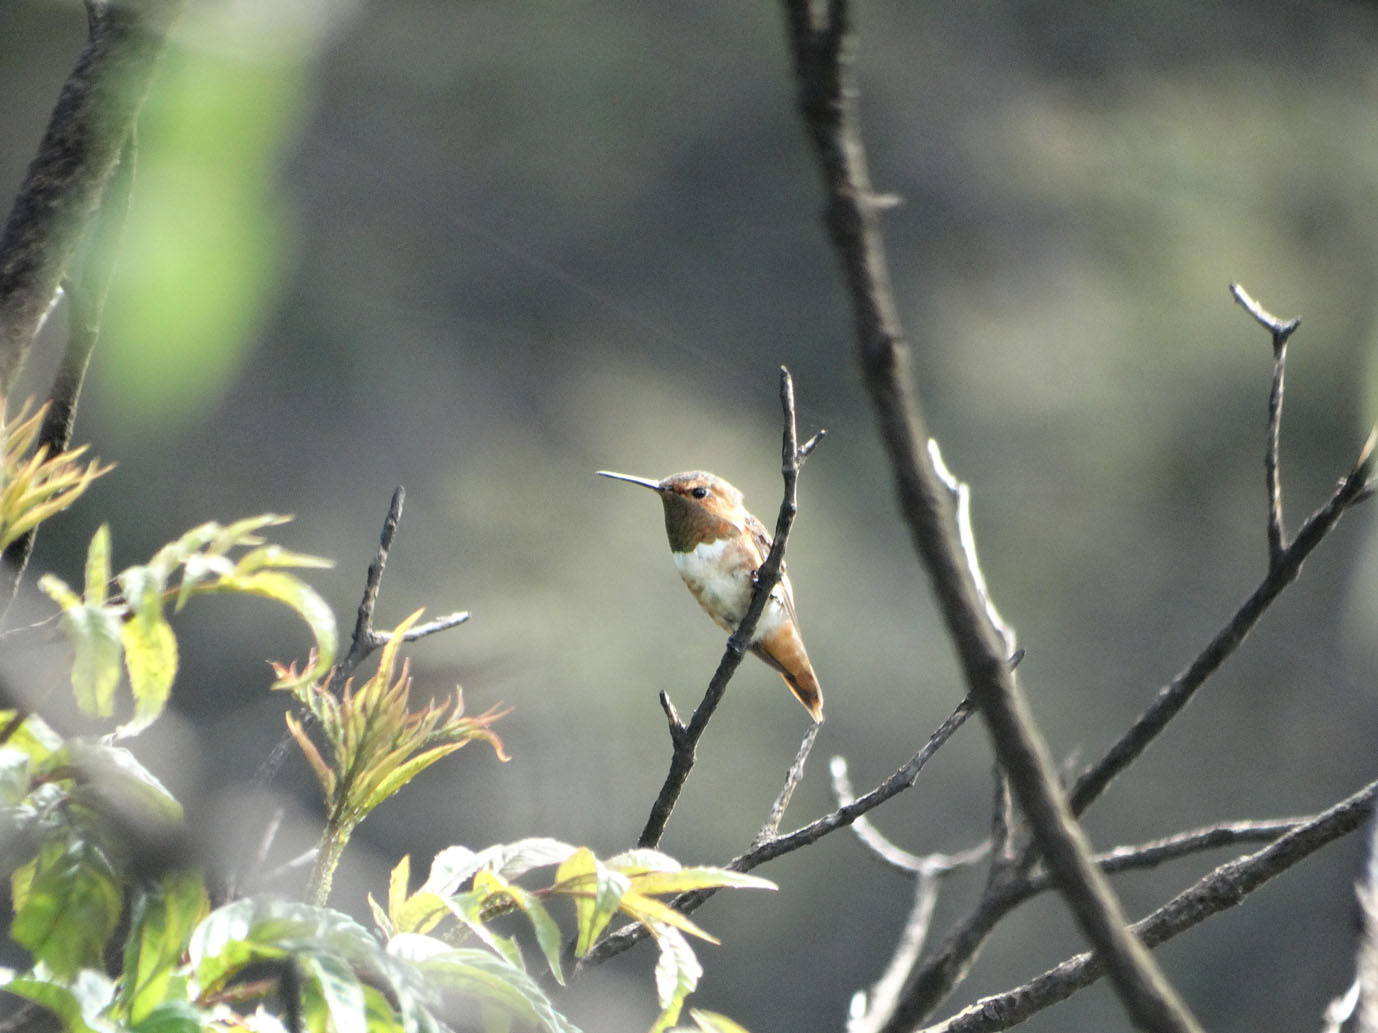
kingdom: Animalia
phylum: Chordata
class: Aves
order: Apodiformes
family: Trochilidae
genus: Selasphorus
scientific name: Selasphorus rufus
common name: Rufous hummingbird
